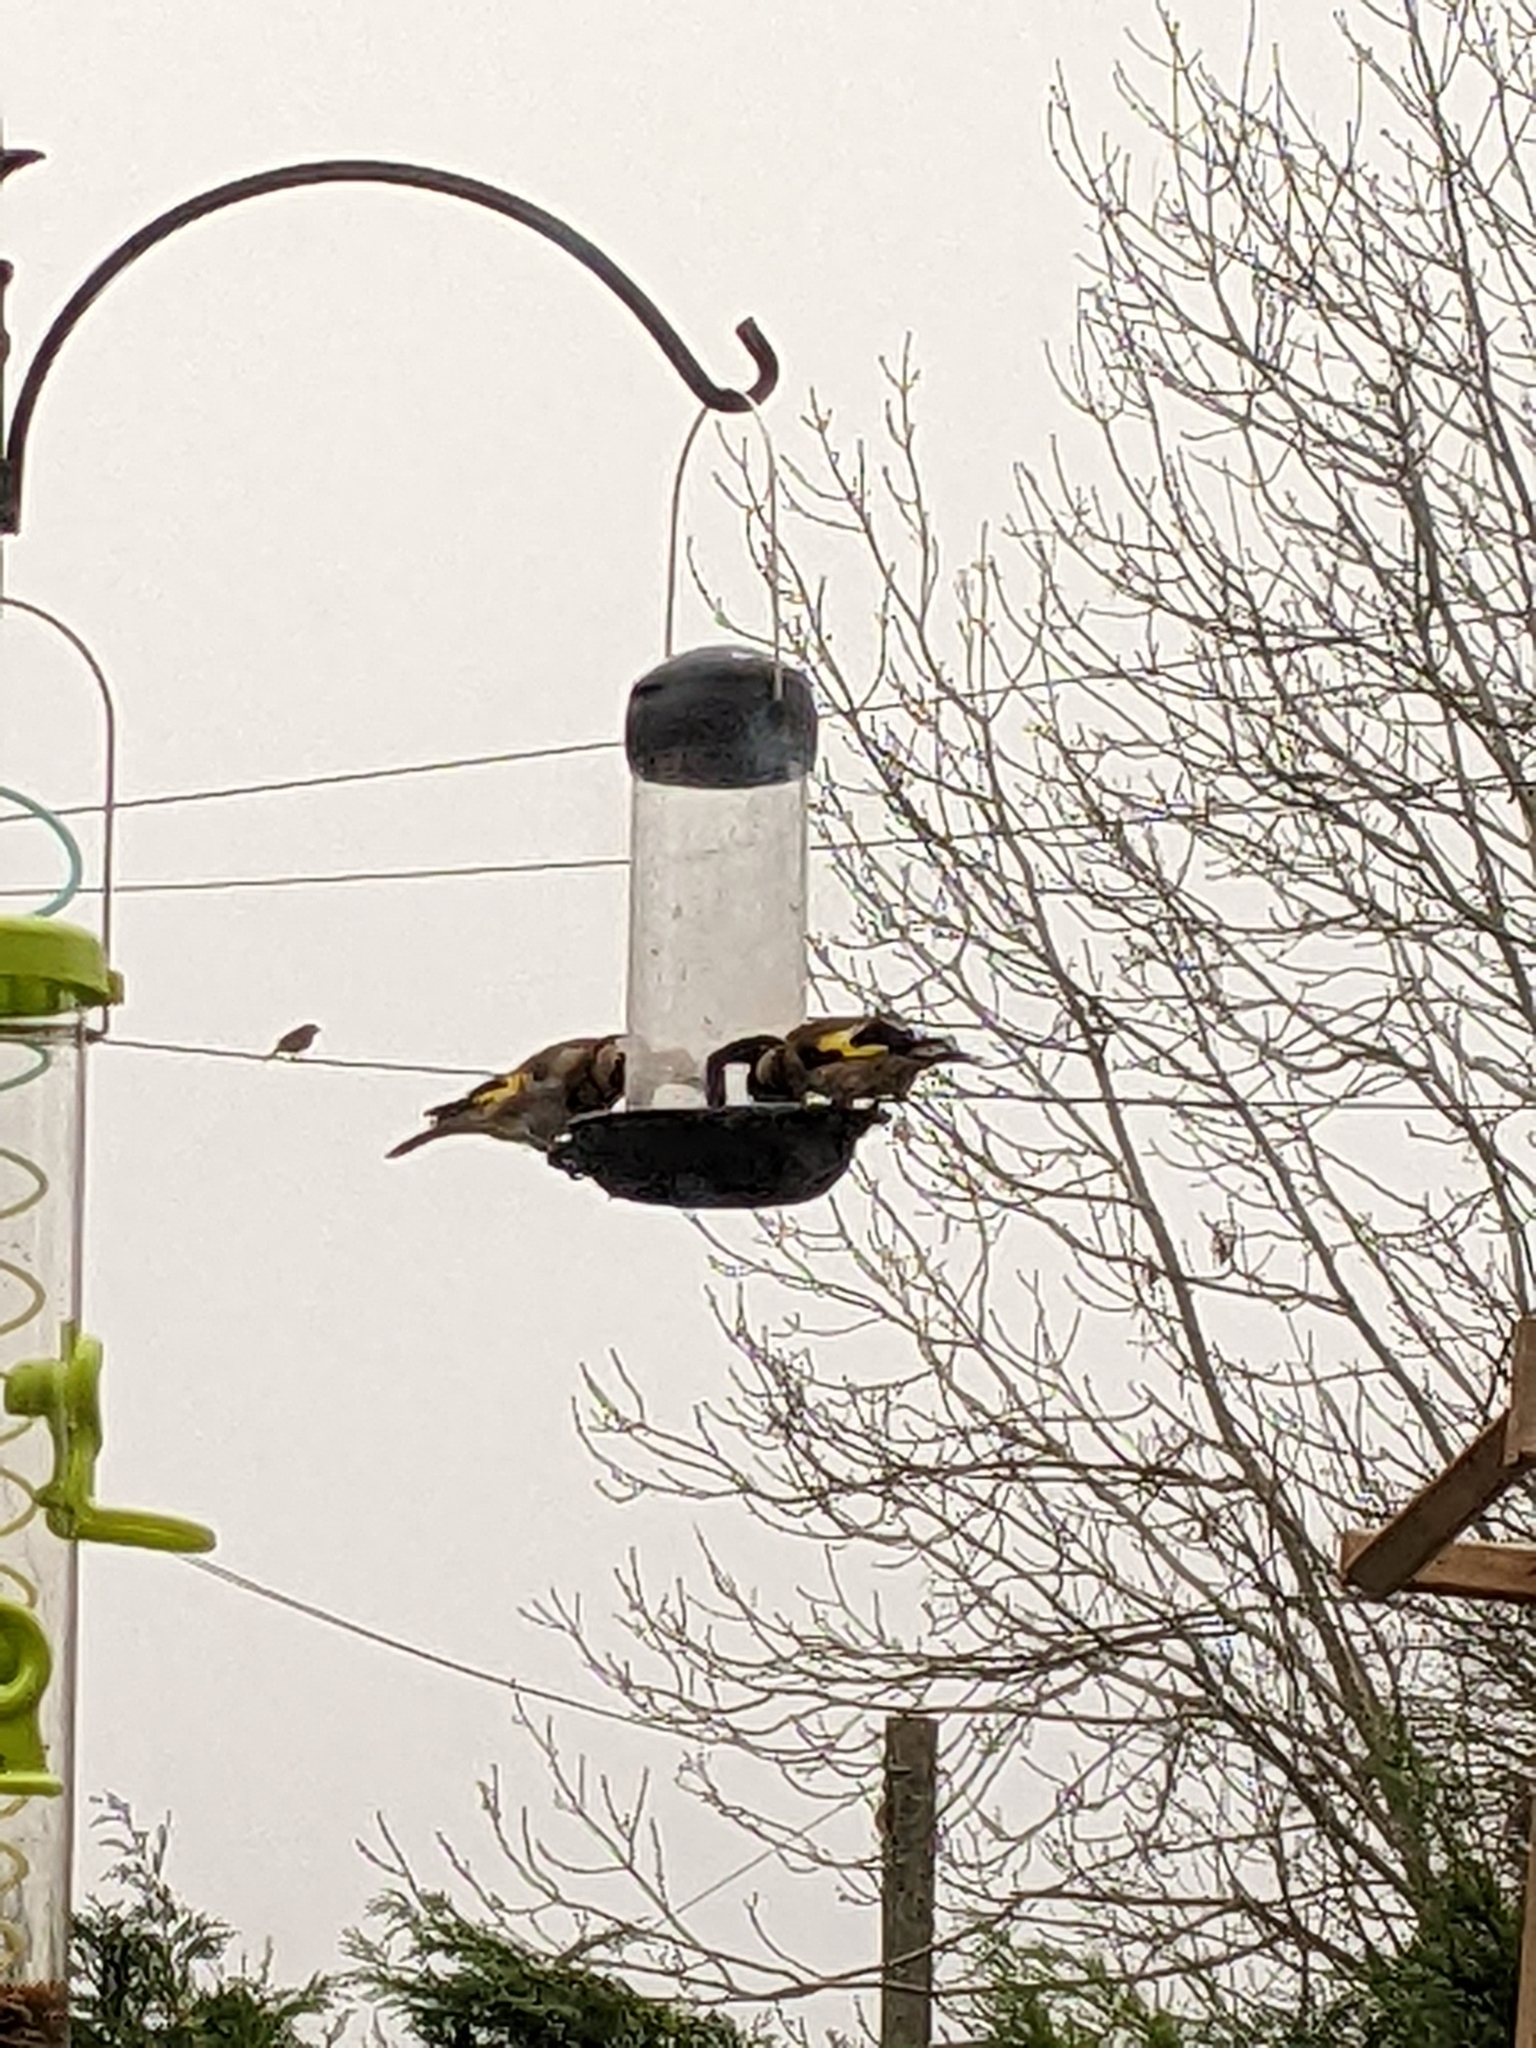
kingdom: Animalia
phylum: Chordata
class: Aves
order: Passeriformes
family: Fringillidae
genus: Carduelis
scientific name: Carduelis carduelis
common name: European goldfinch
